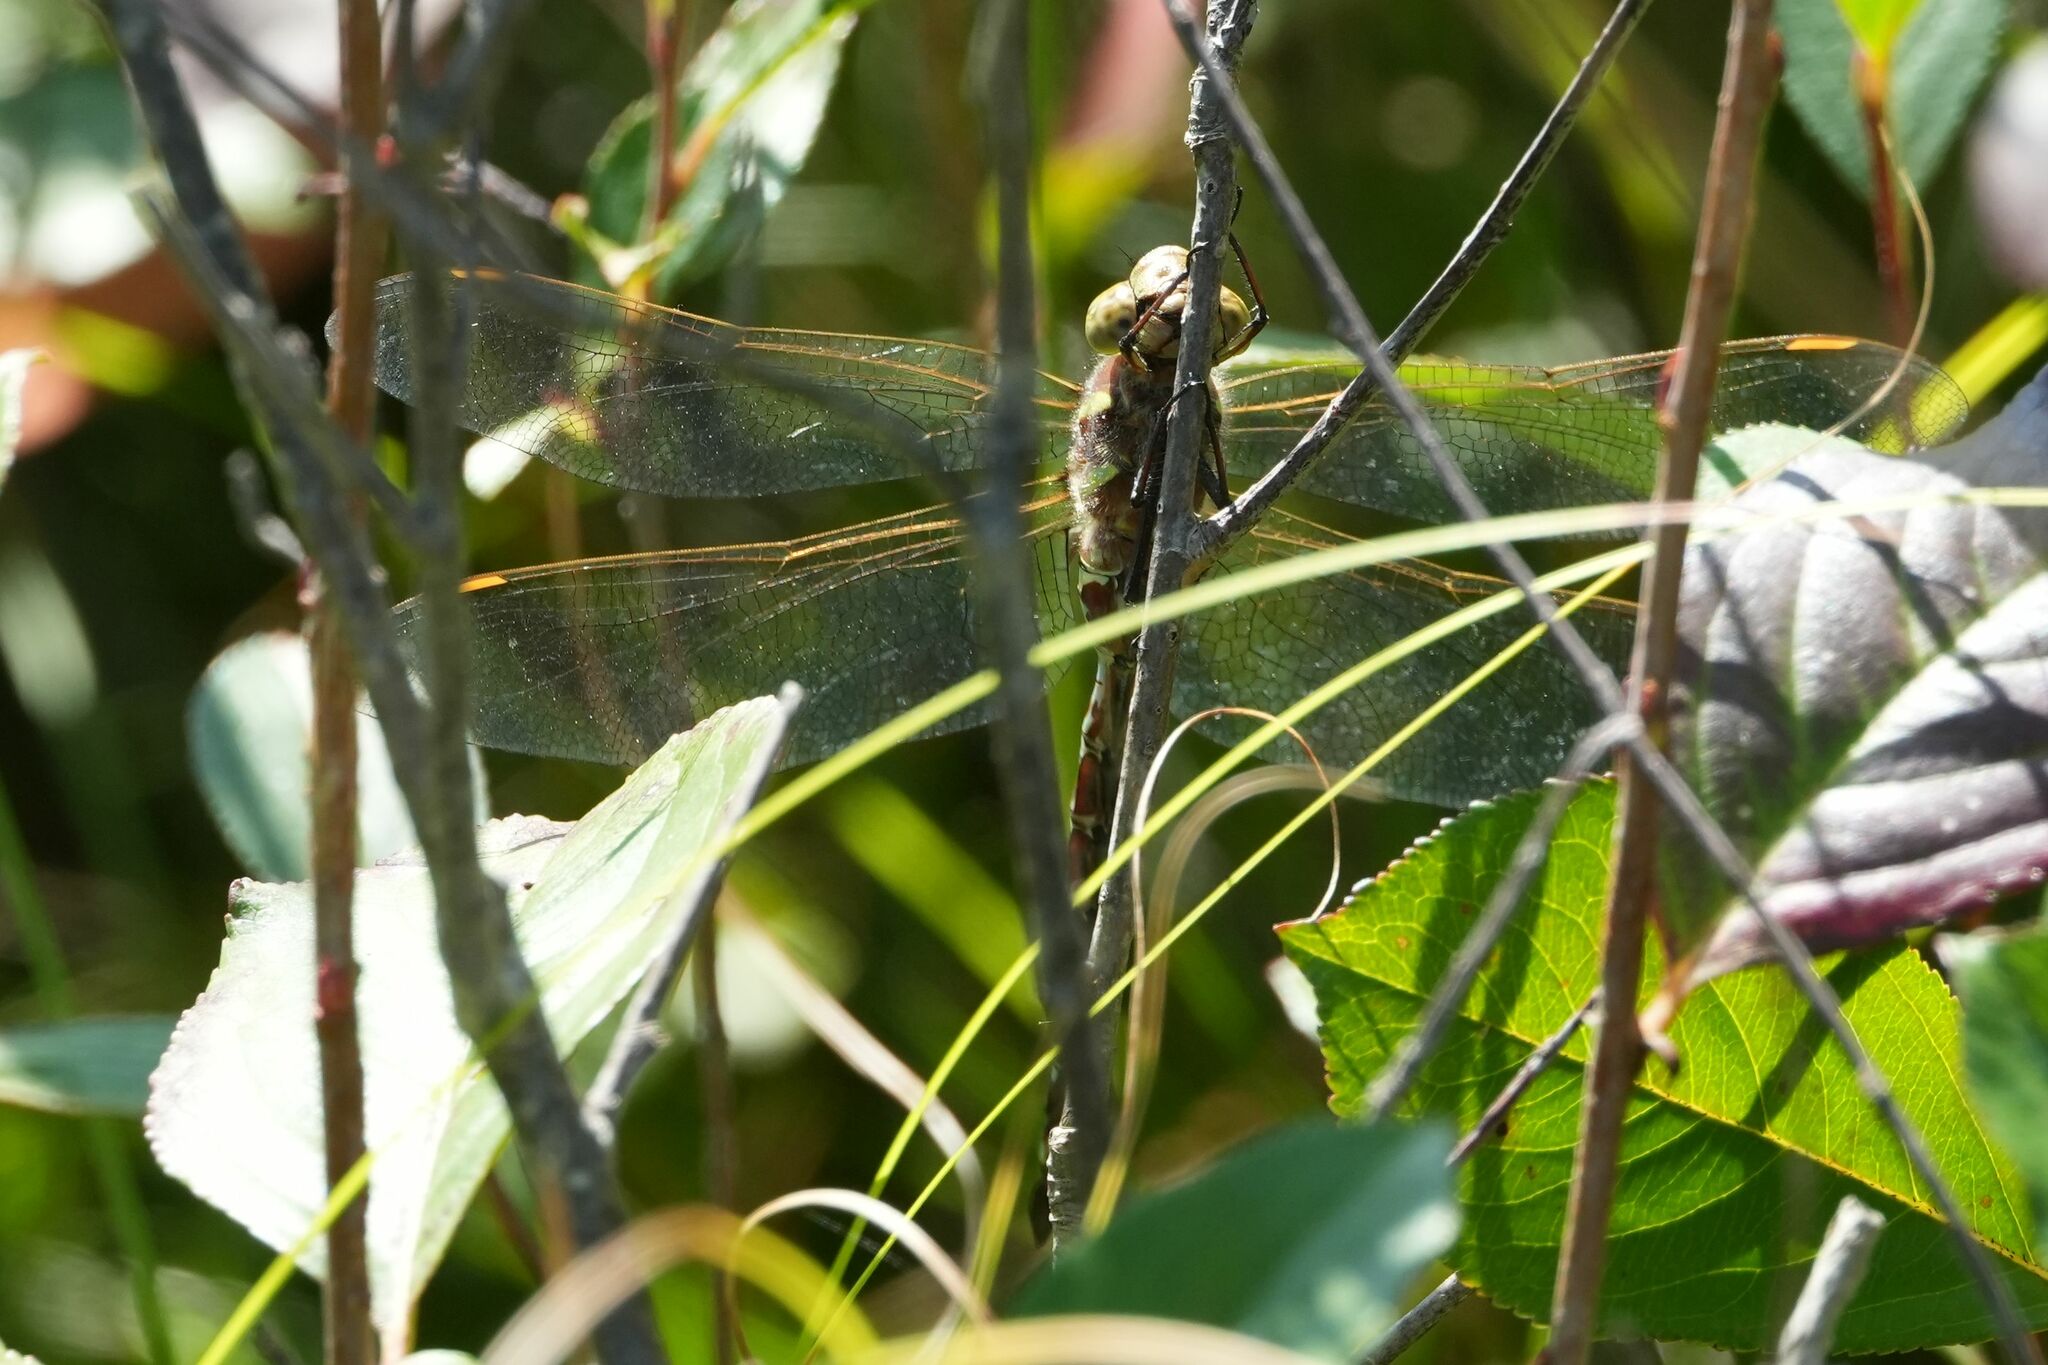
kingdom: Animalia
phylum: Arthropoda
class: Insecta
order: Odonata
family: Aeshnidae
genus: Aeshna
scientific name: Aeshna constricta
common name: Lance-tipped darner
